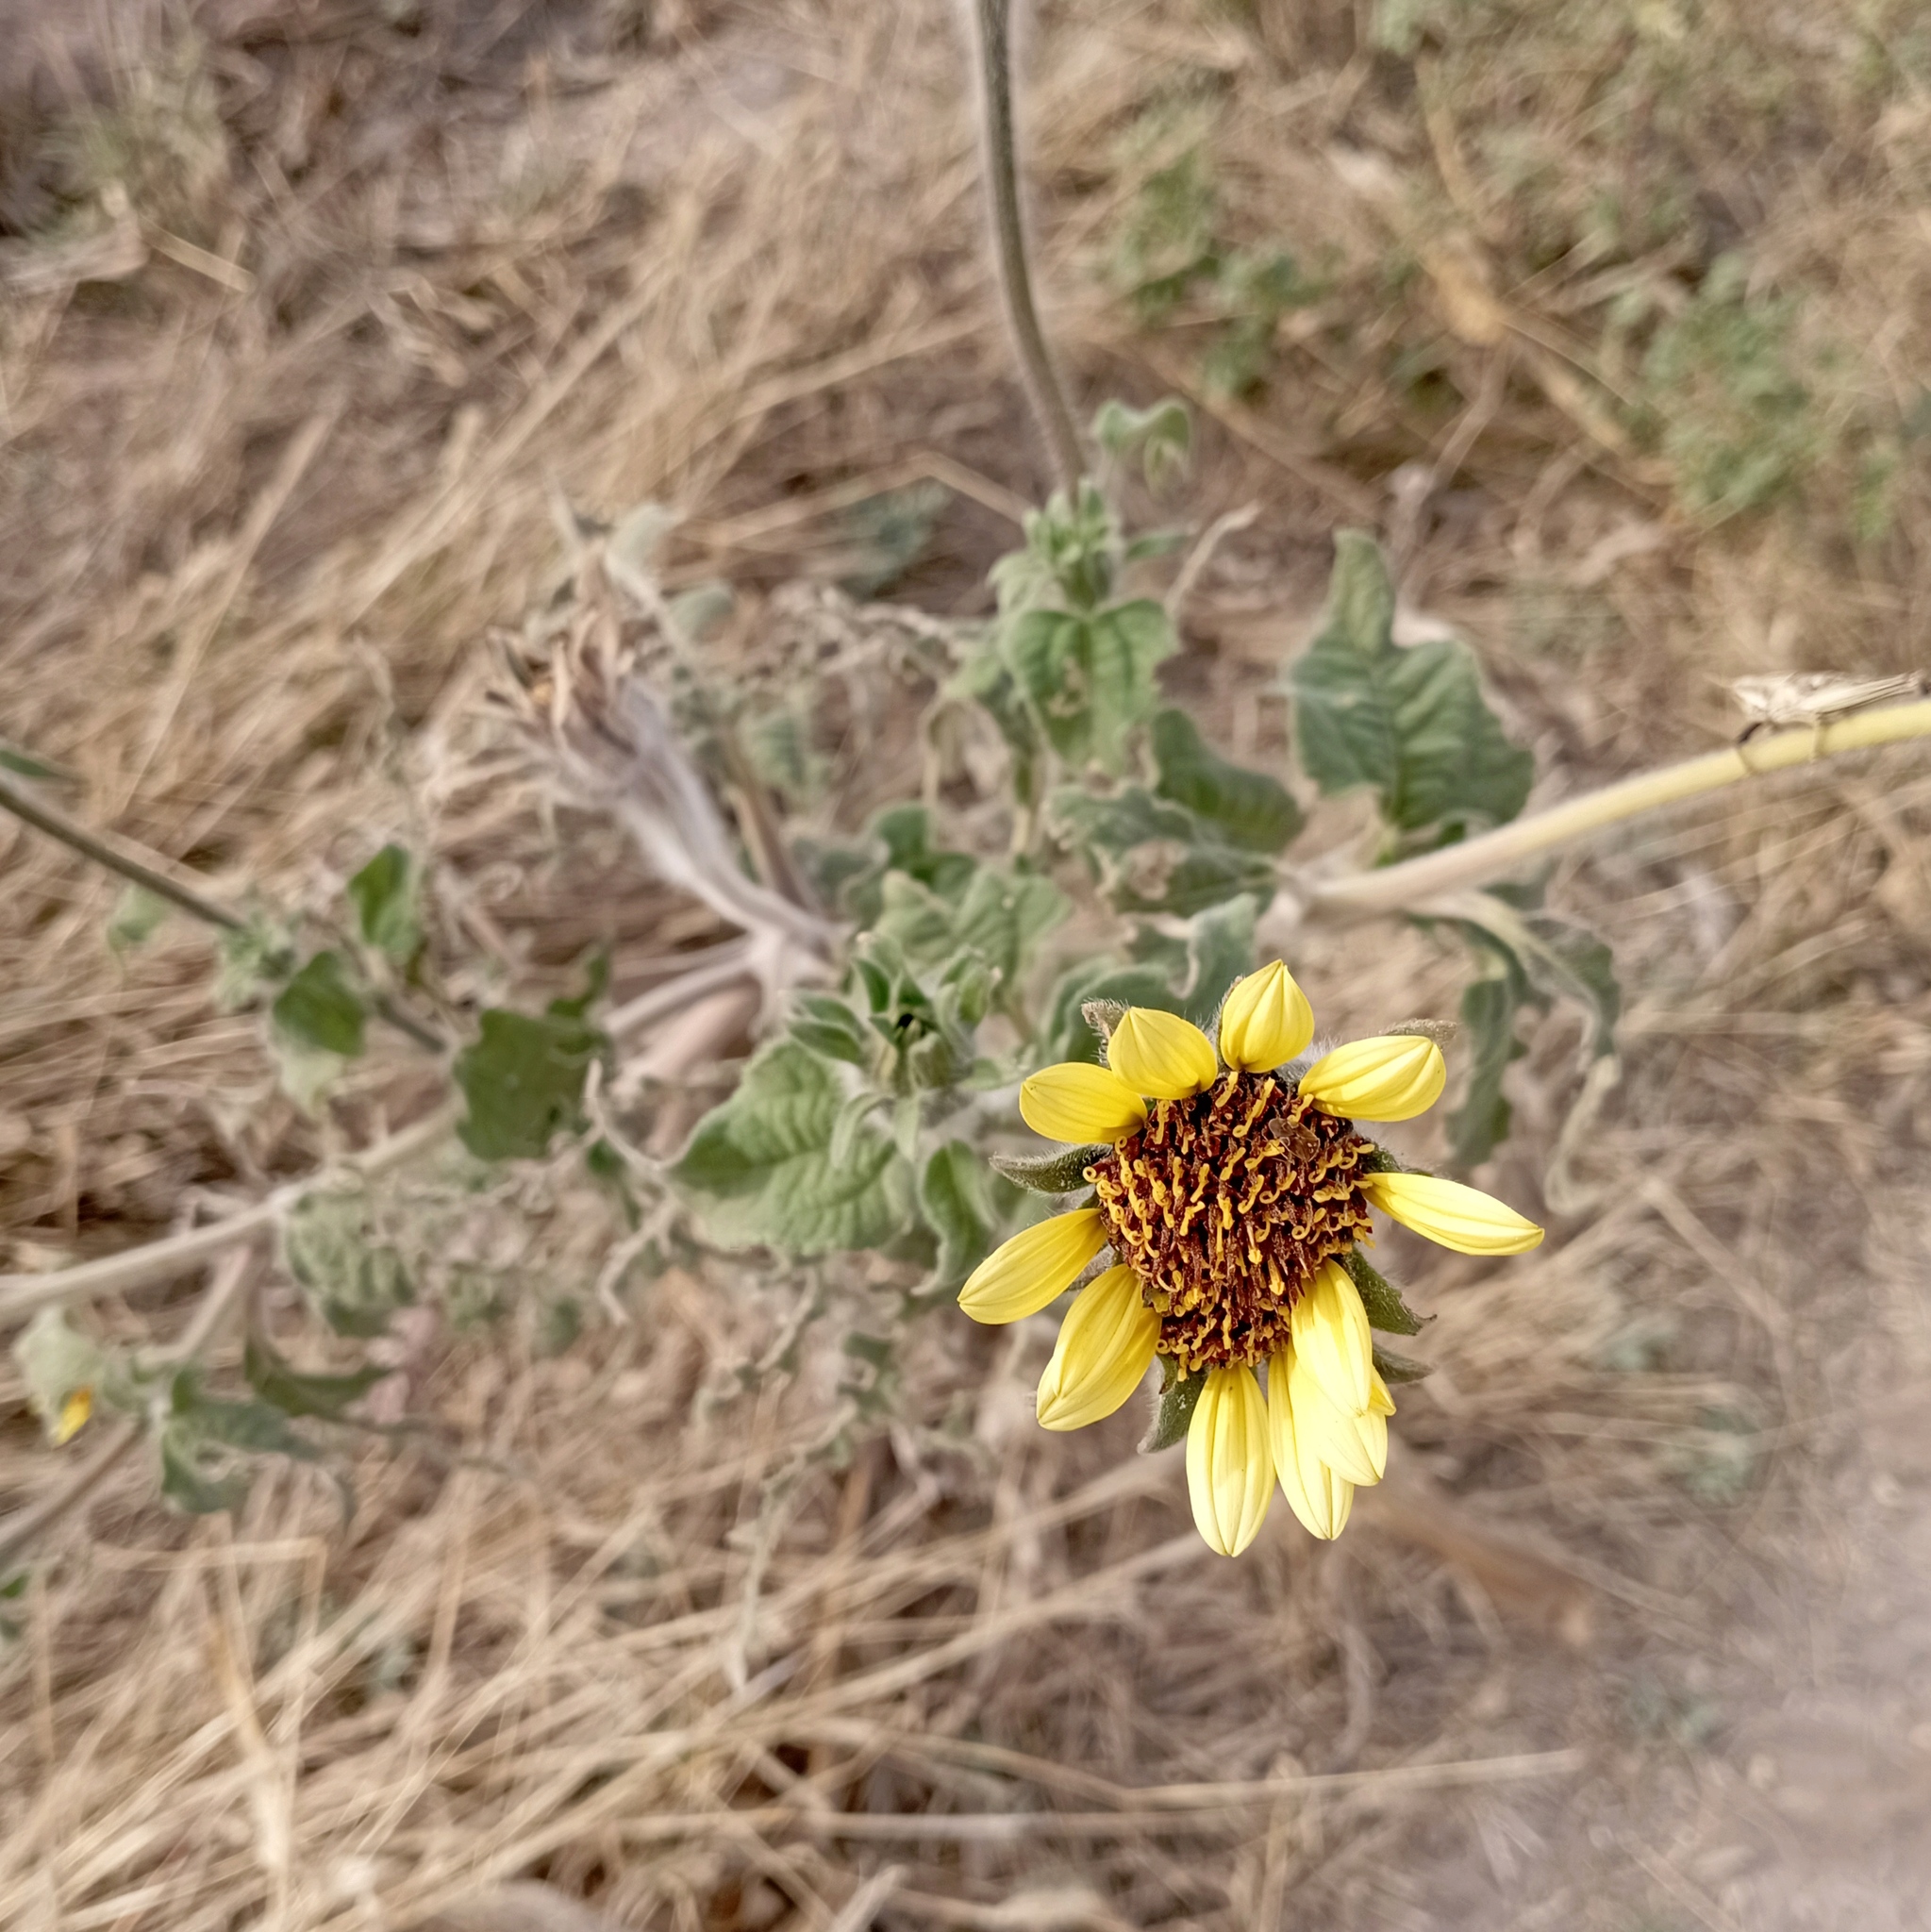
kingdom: Plantae
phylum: Tracheophyta
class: Magnoliopsida
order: Asterales
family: Asteraceae
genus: Tithonia
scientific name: Tithonia tubaeformis
